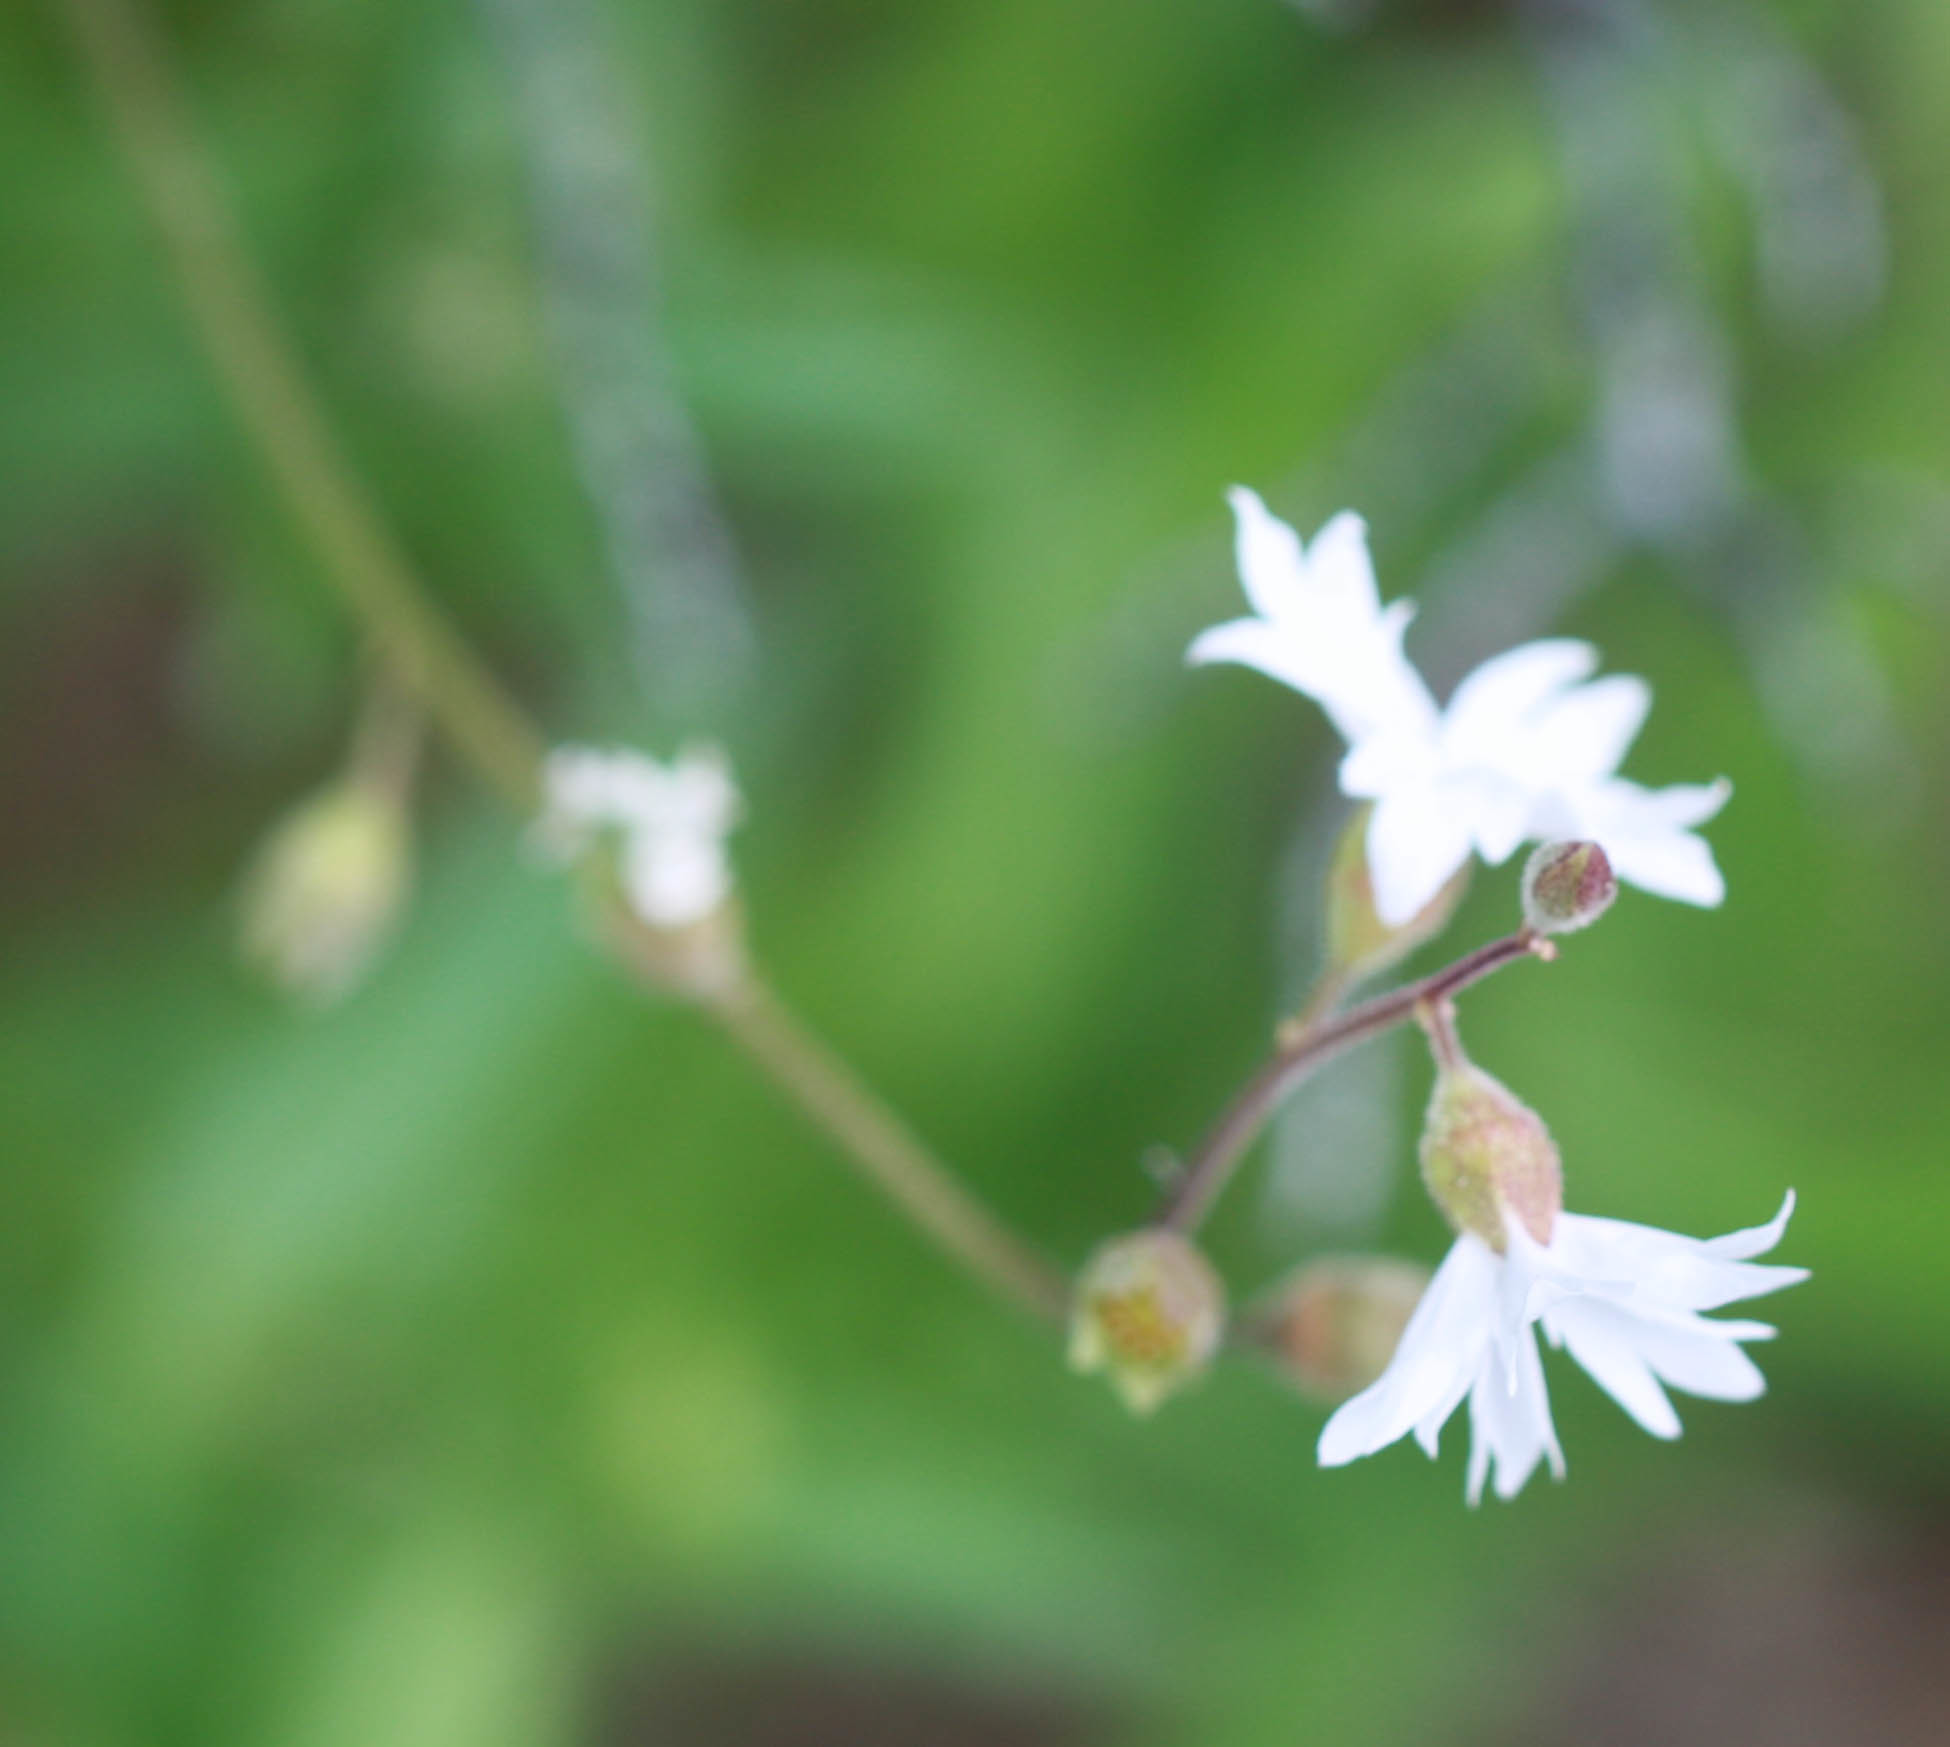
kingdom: Plantae
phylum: Tracheophyta
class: Magnoliopsida
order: Saxifragales
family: Saxifragaceae
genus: Lithophragma
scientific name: Lithophragma affine
